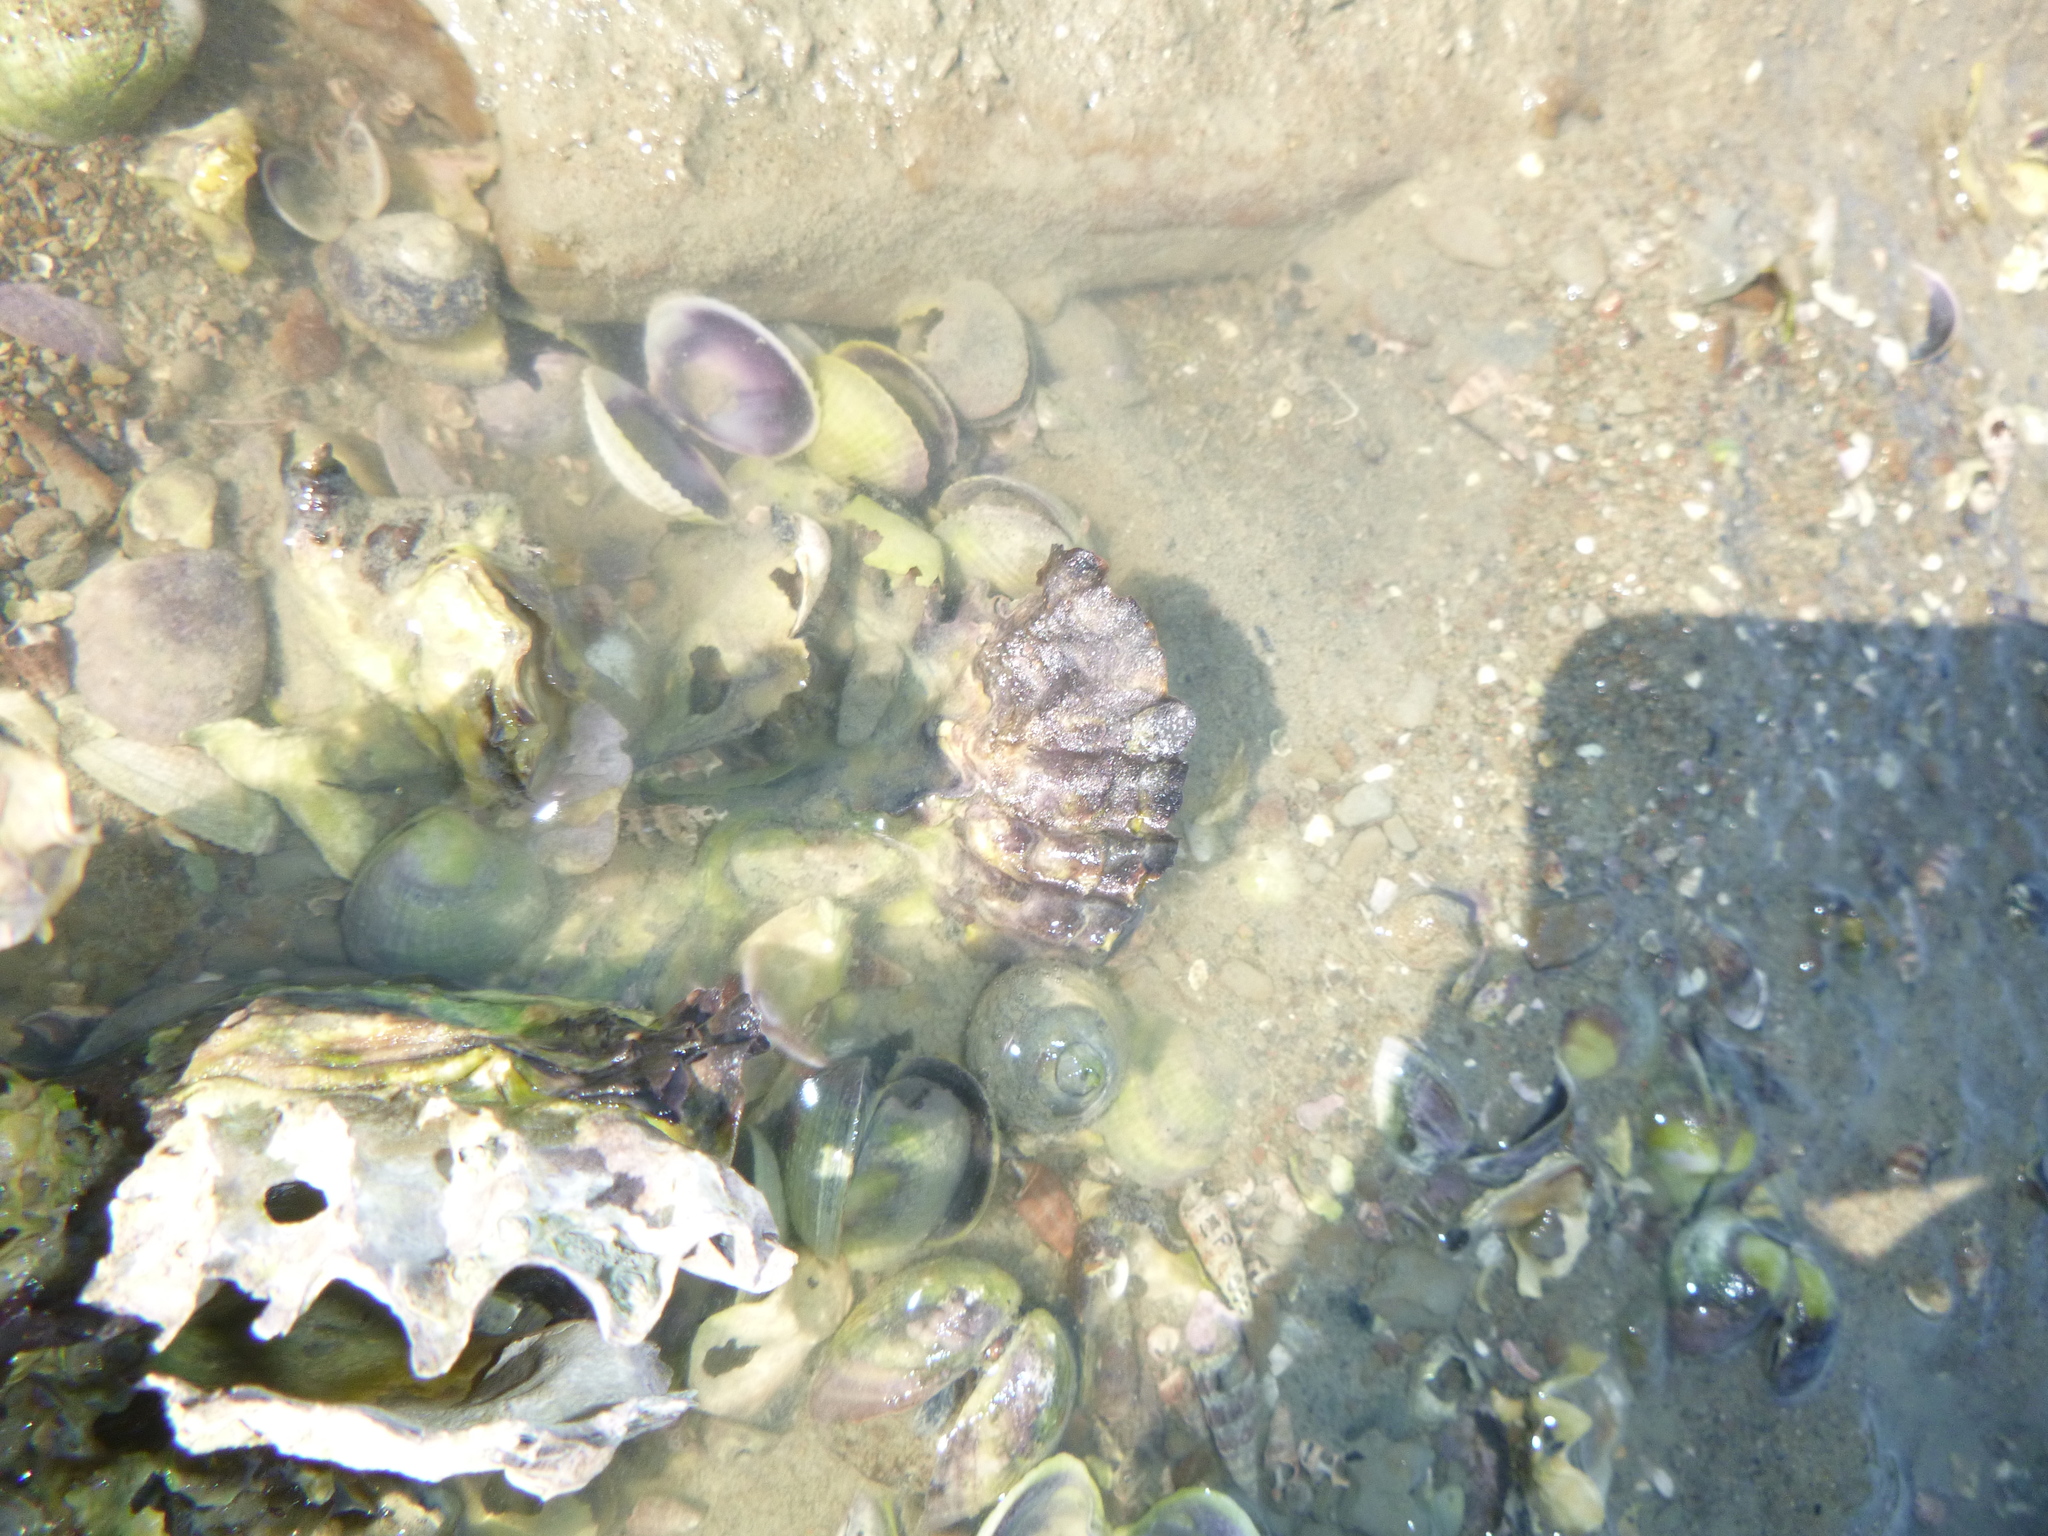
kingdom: Animalia
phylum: Mollusca
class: Bivalvia
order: Ostreida
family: Ostreidae
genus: Magallana
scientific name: Magallana gigas
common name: Pacific oyster
